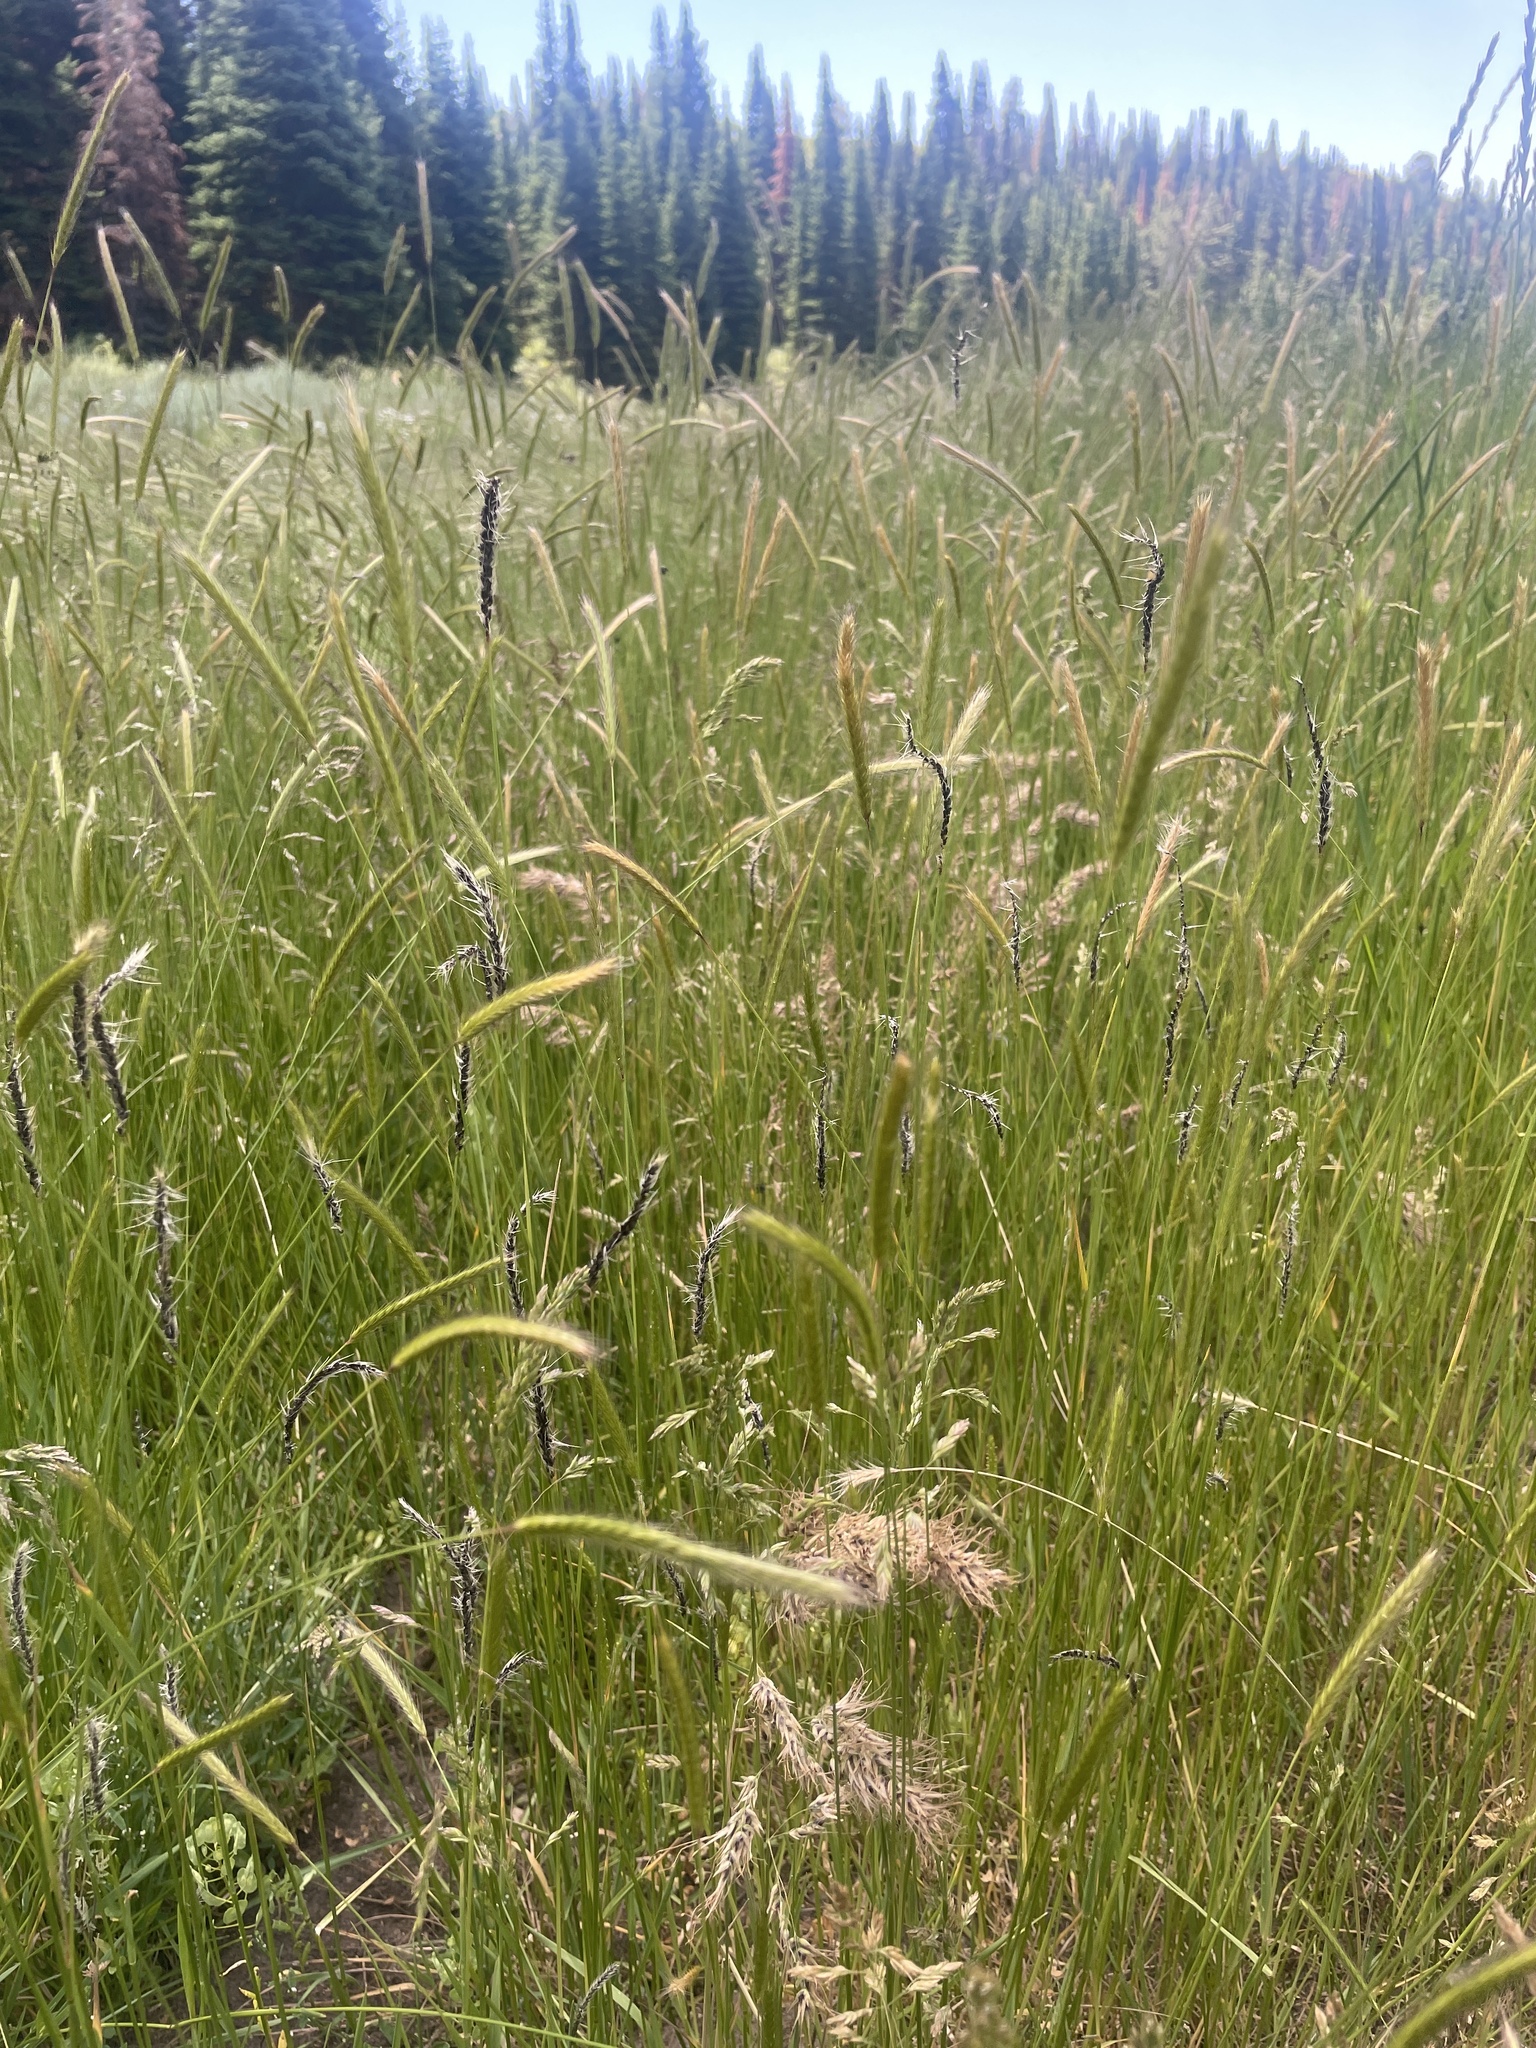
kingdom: Plantae
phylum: Tracheophyta
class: Liliopsida
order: Poales
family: Poaceae
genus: Hordeum
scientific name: Hordeum brachyantherum
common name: Meadow barley
